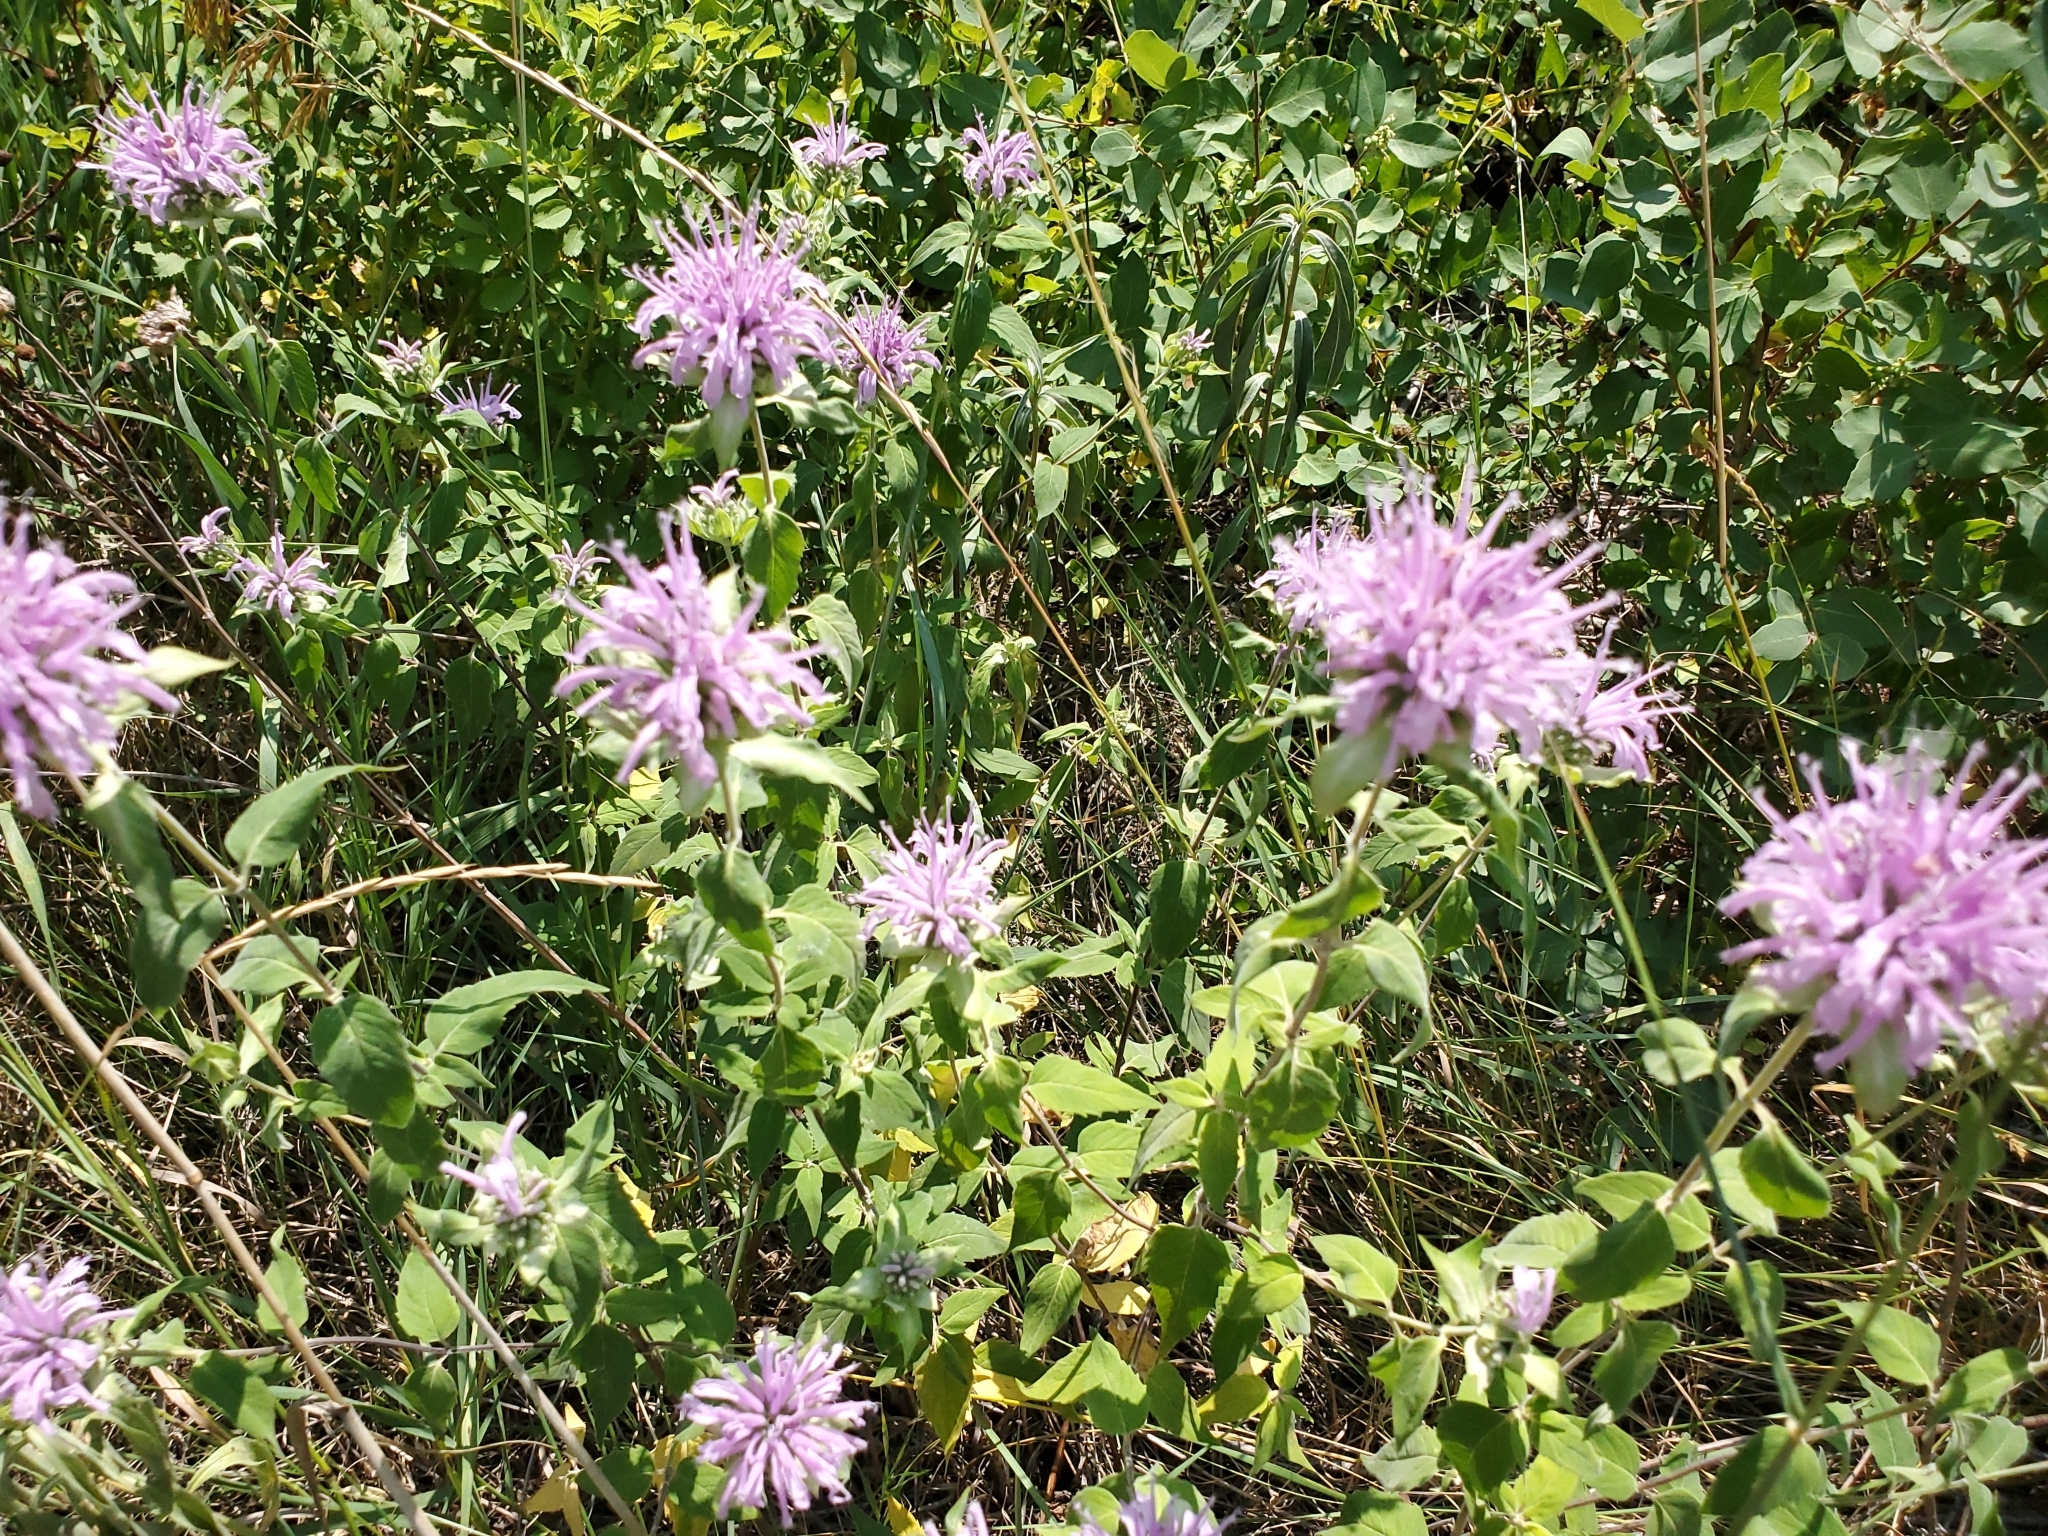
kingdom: Plantae
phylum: Tracheophyta
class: Magnoliopsida
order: Lamiales
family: Lamiaceae
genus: Monarda
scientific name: Monarda fistulosa
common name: Purple beebalm
